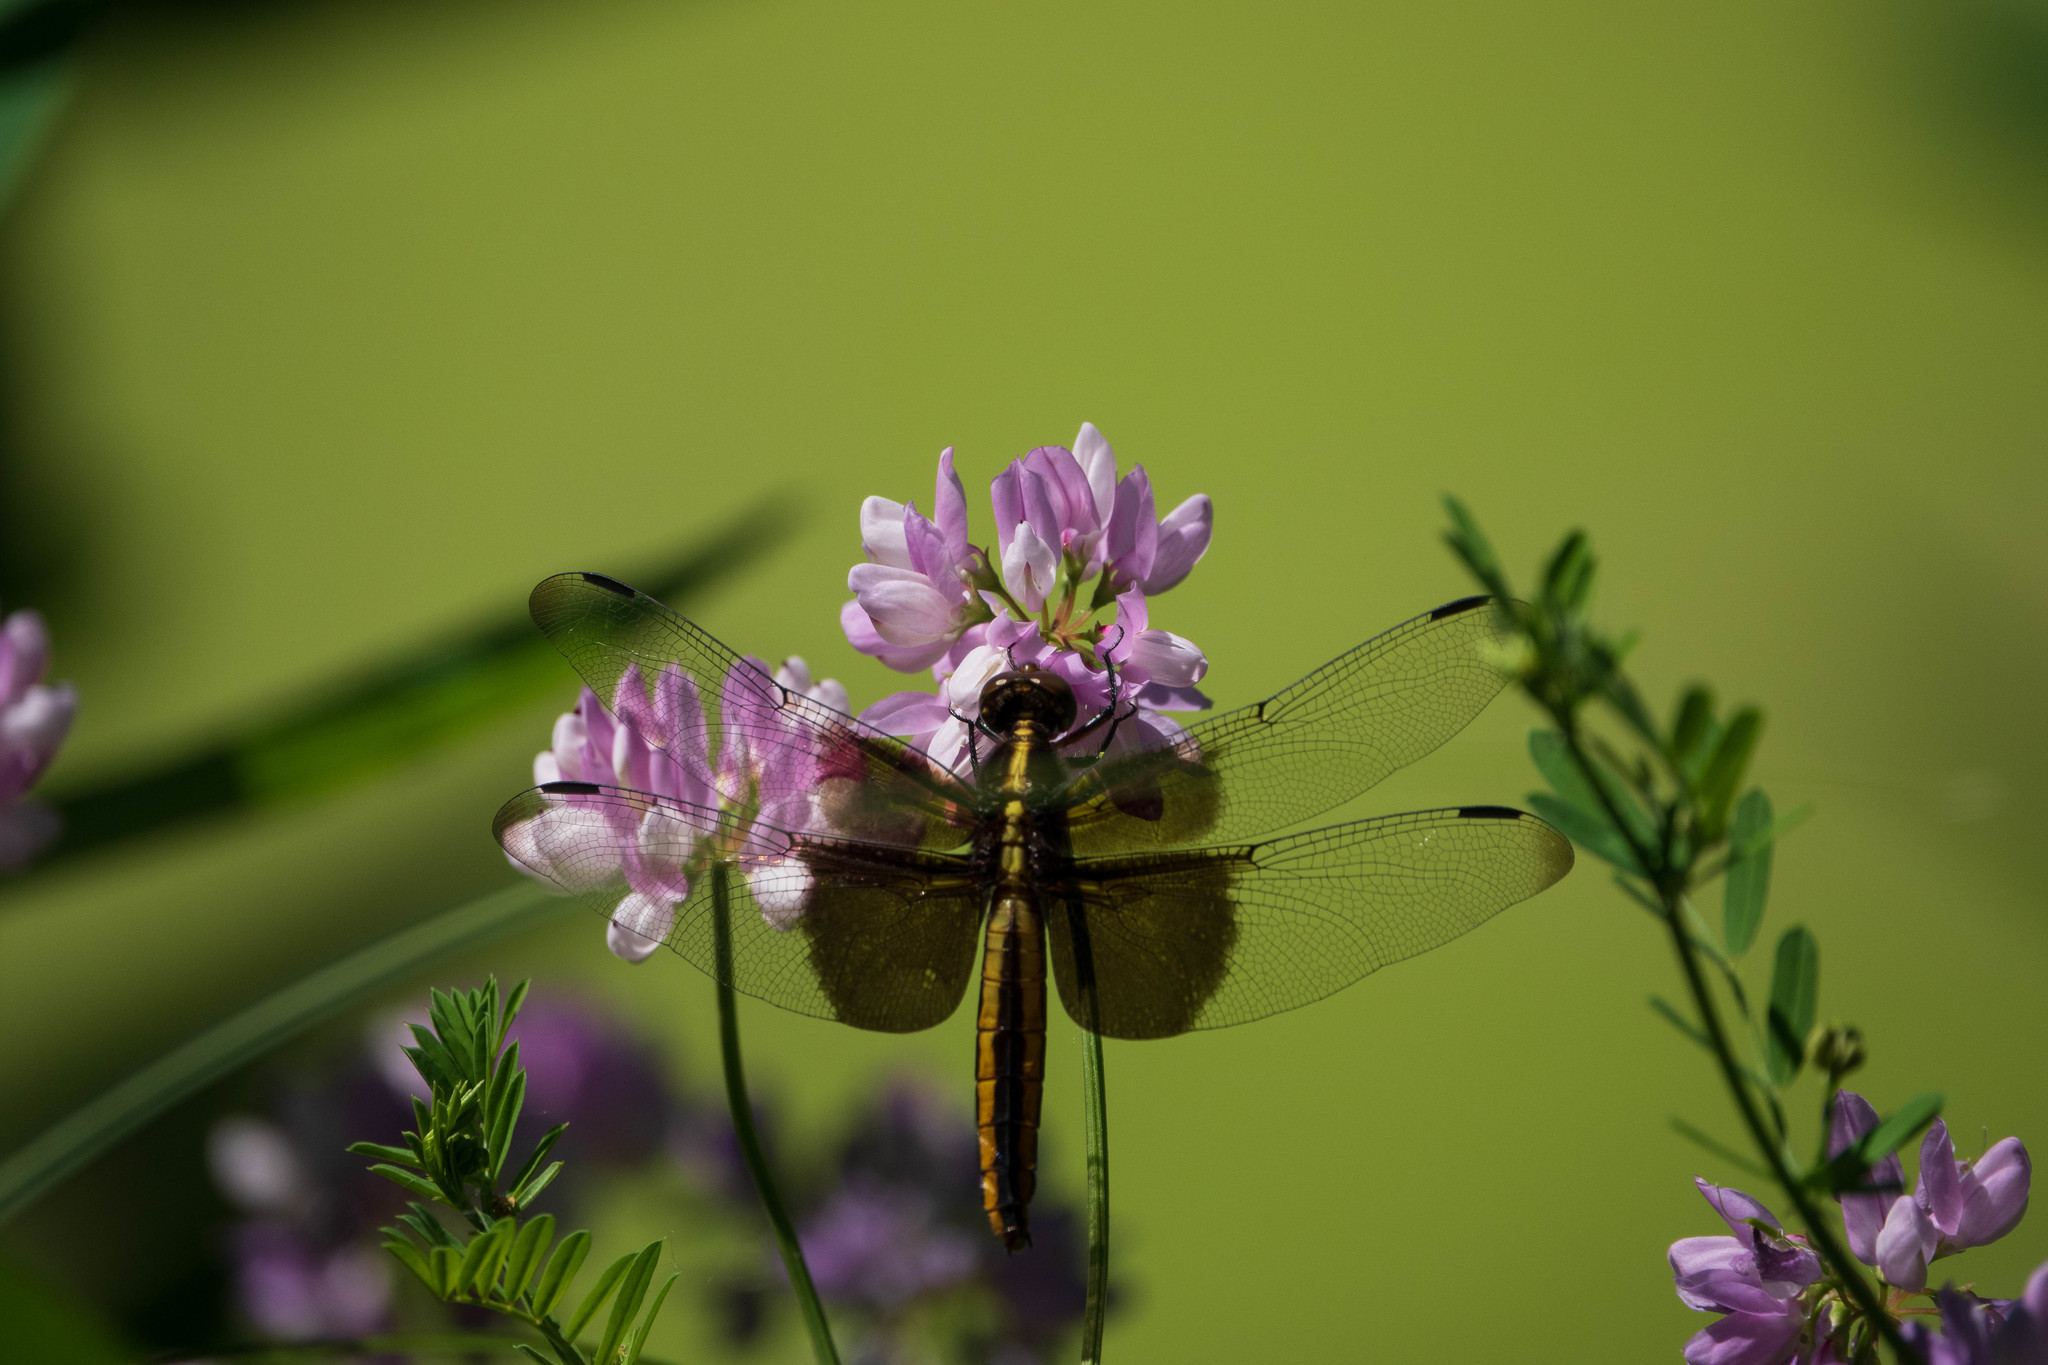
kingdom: Animalia
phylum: Arthropoda
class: Insecta
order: Odonata
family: Libellulidae
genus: Libellula
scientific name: Libellula luctuosa
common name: Widow skimmer
